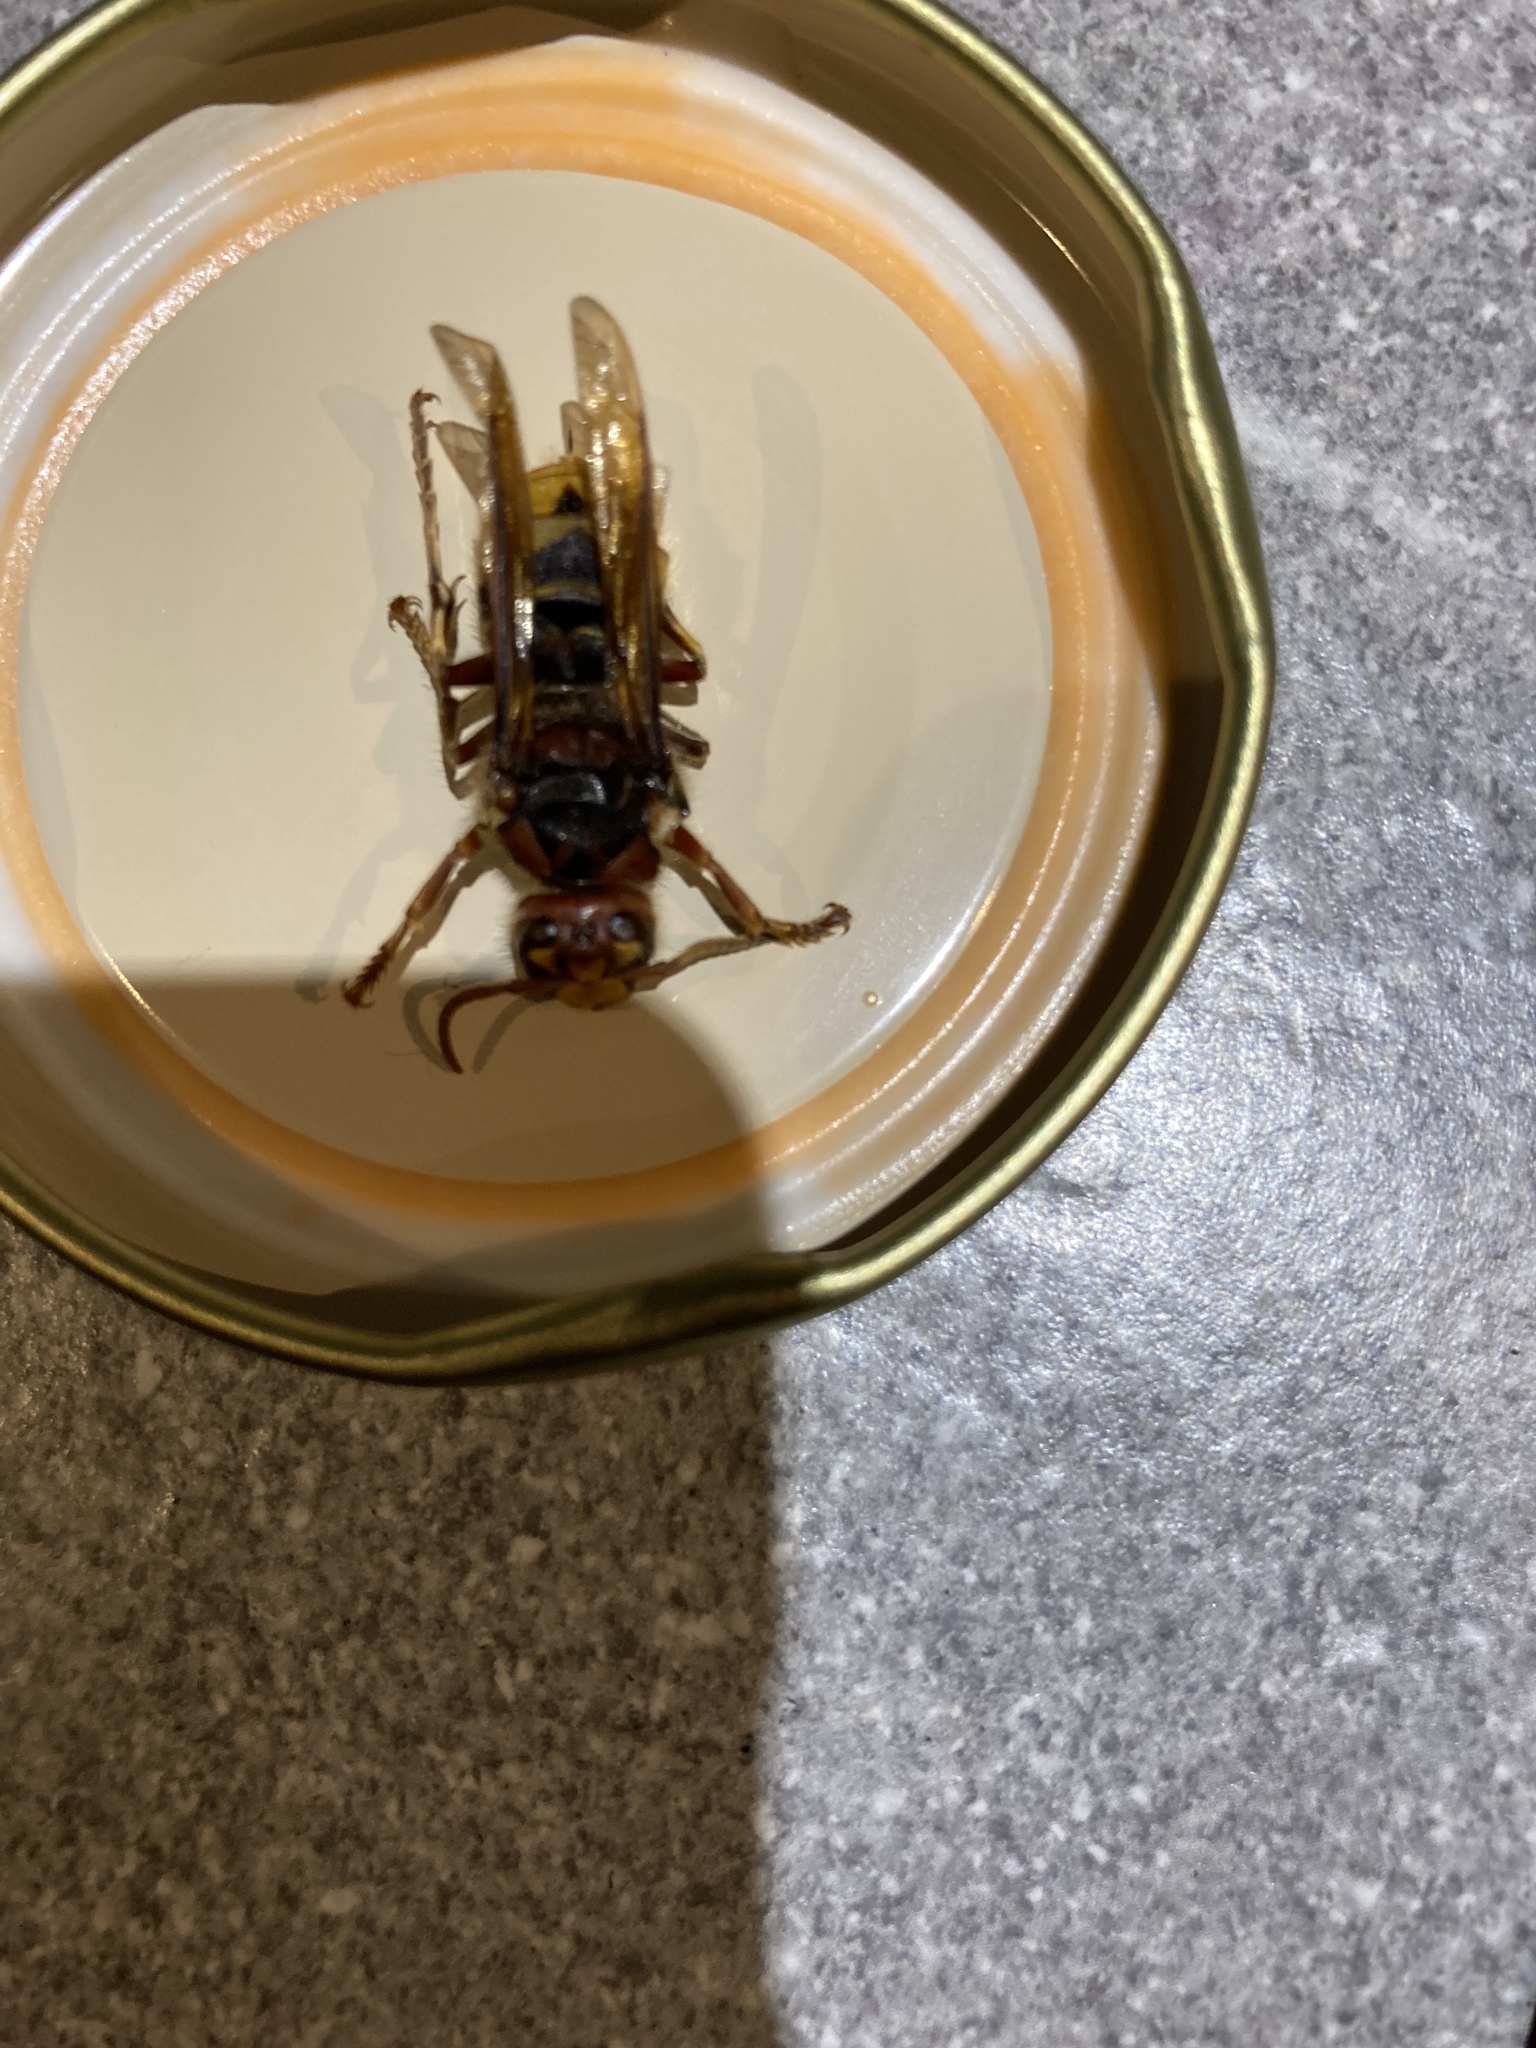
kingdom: Animalia
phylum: Arthropoda
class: Insecta
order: Hymenoptera
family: Vespidae
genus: Vespa
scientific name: Vespa crabro
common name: Hornet
